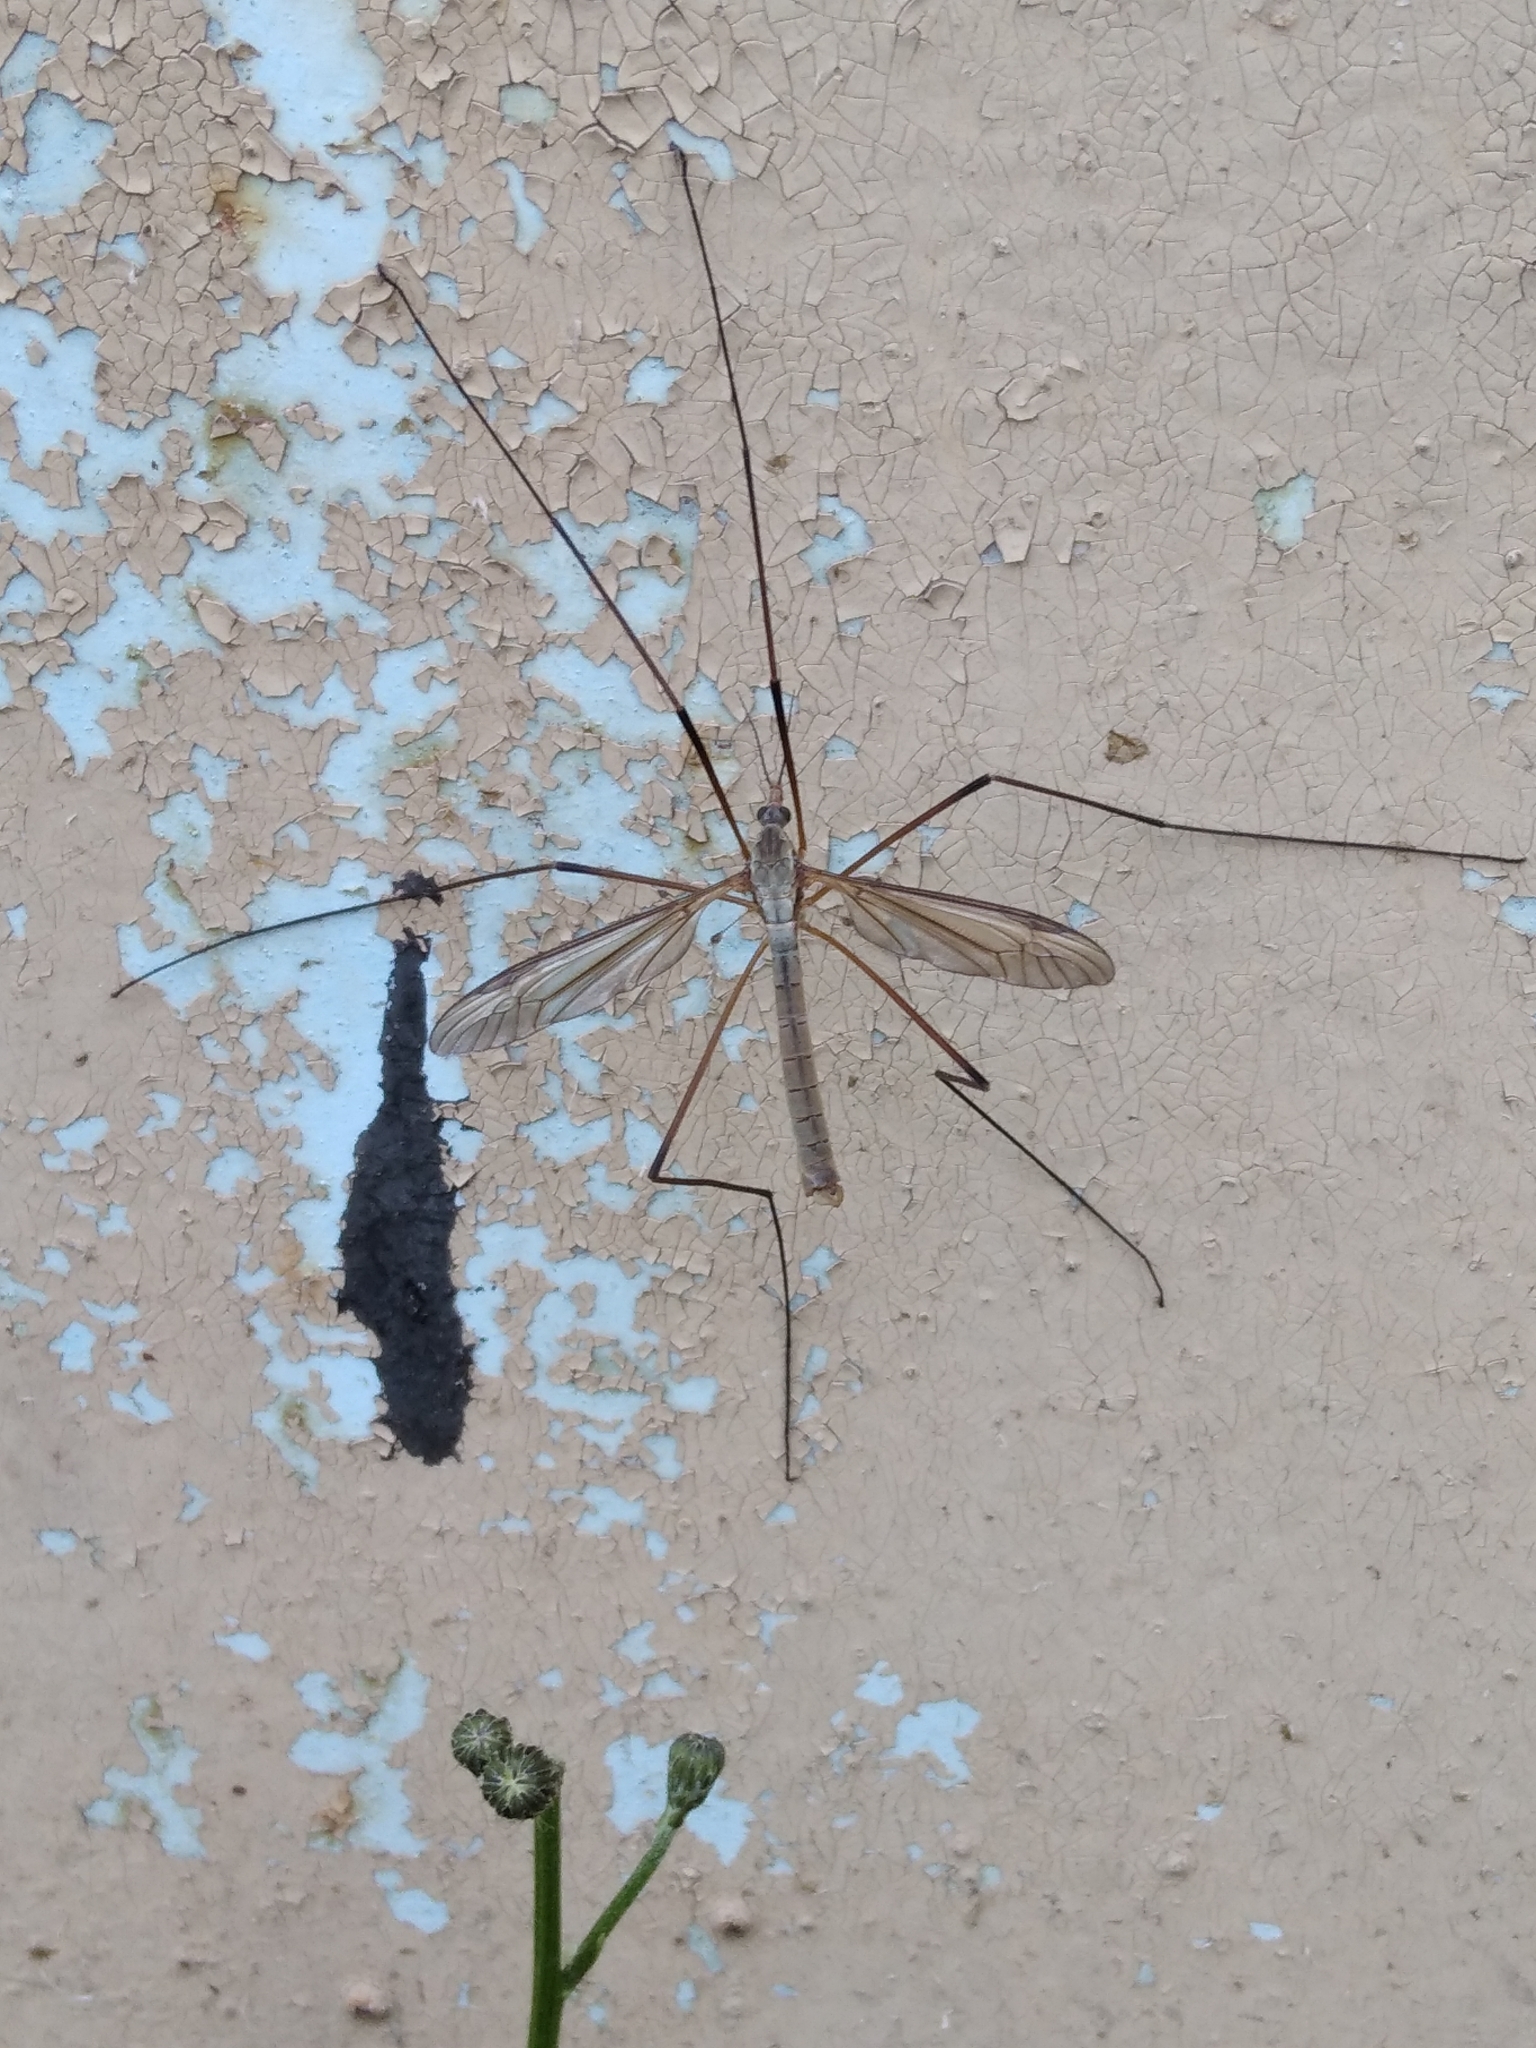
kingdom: Animalia
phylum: Arthropoda
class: Insecta
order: Diptera
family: Tipulidae
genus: Tipula
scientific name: Tipula
